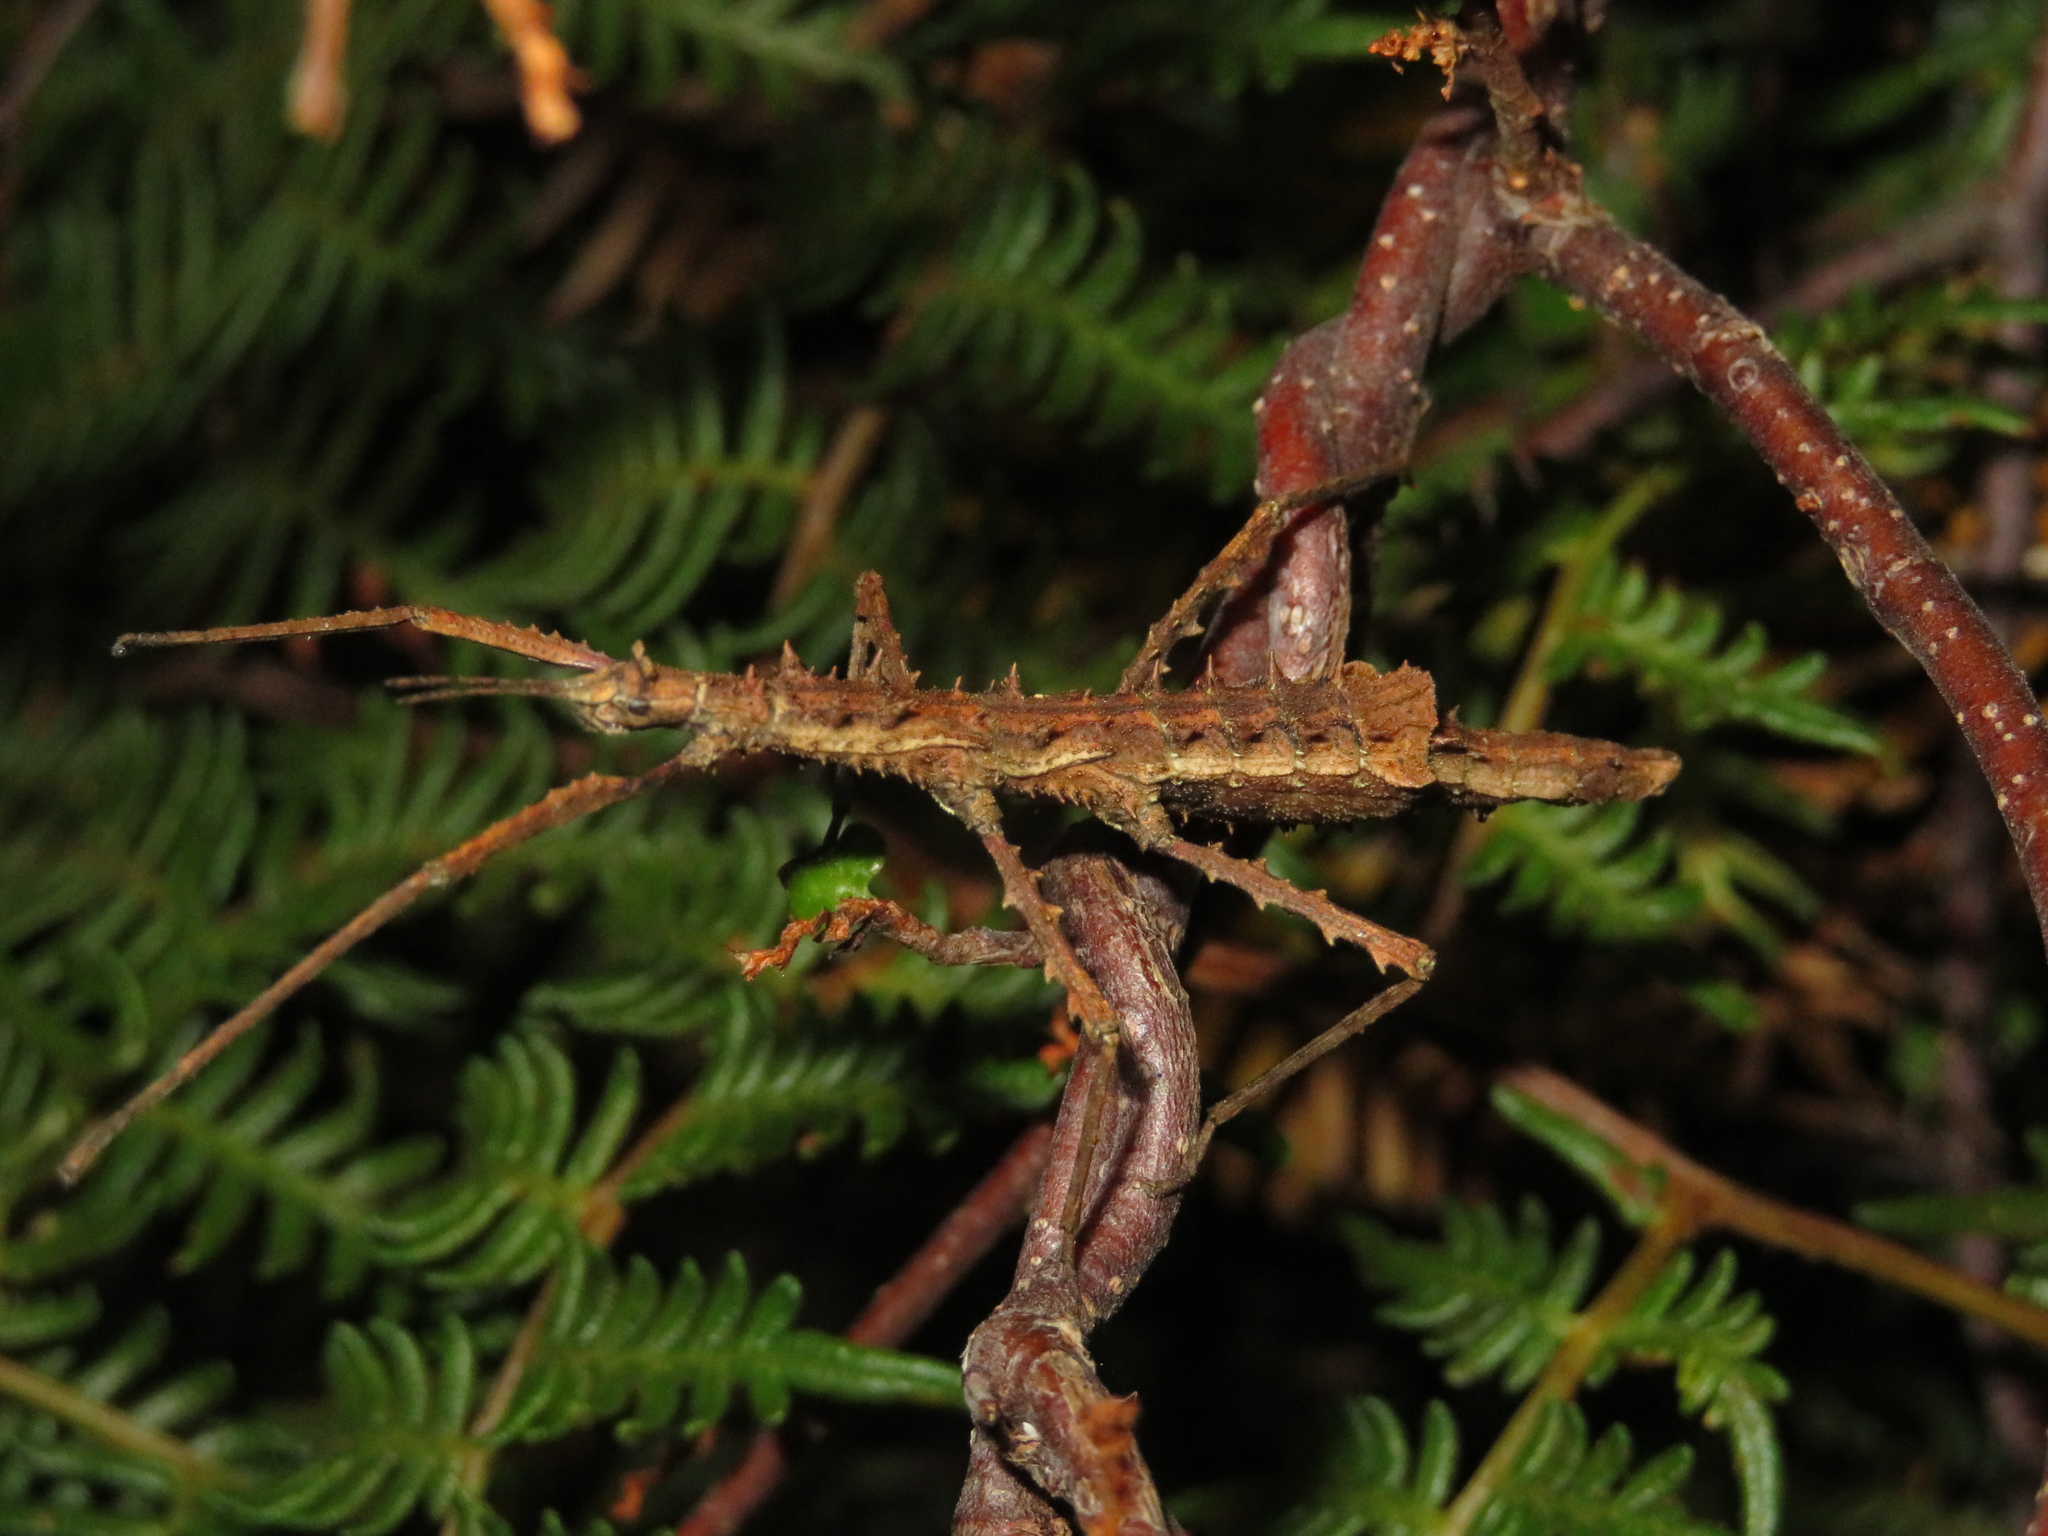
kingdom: Animalia
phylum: Arthropoda
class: Insecta
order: Phasmida
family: Phasmatidae
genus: Micrarchus
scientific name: Micrarchus hystriculeus
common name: The lesser spiny stick insect
